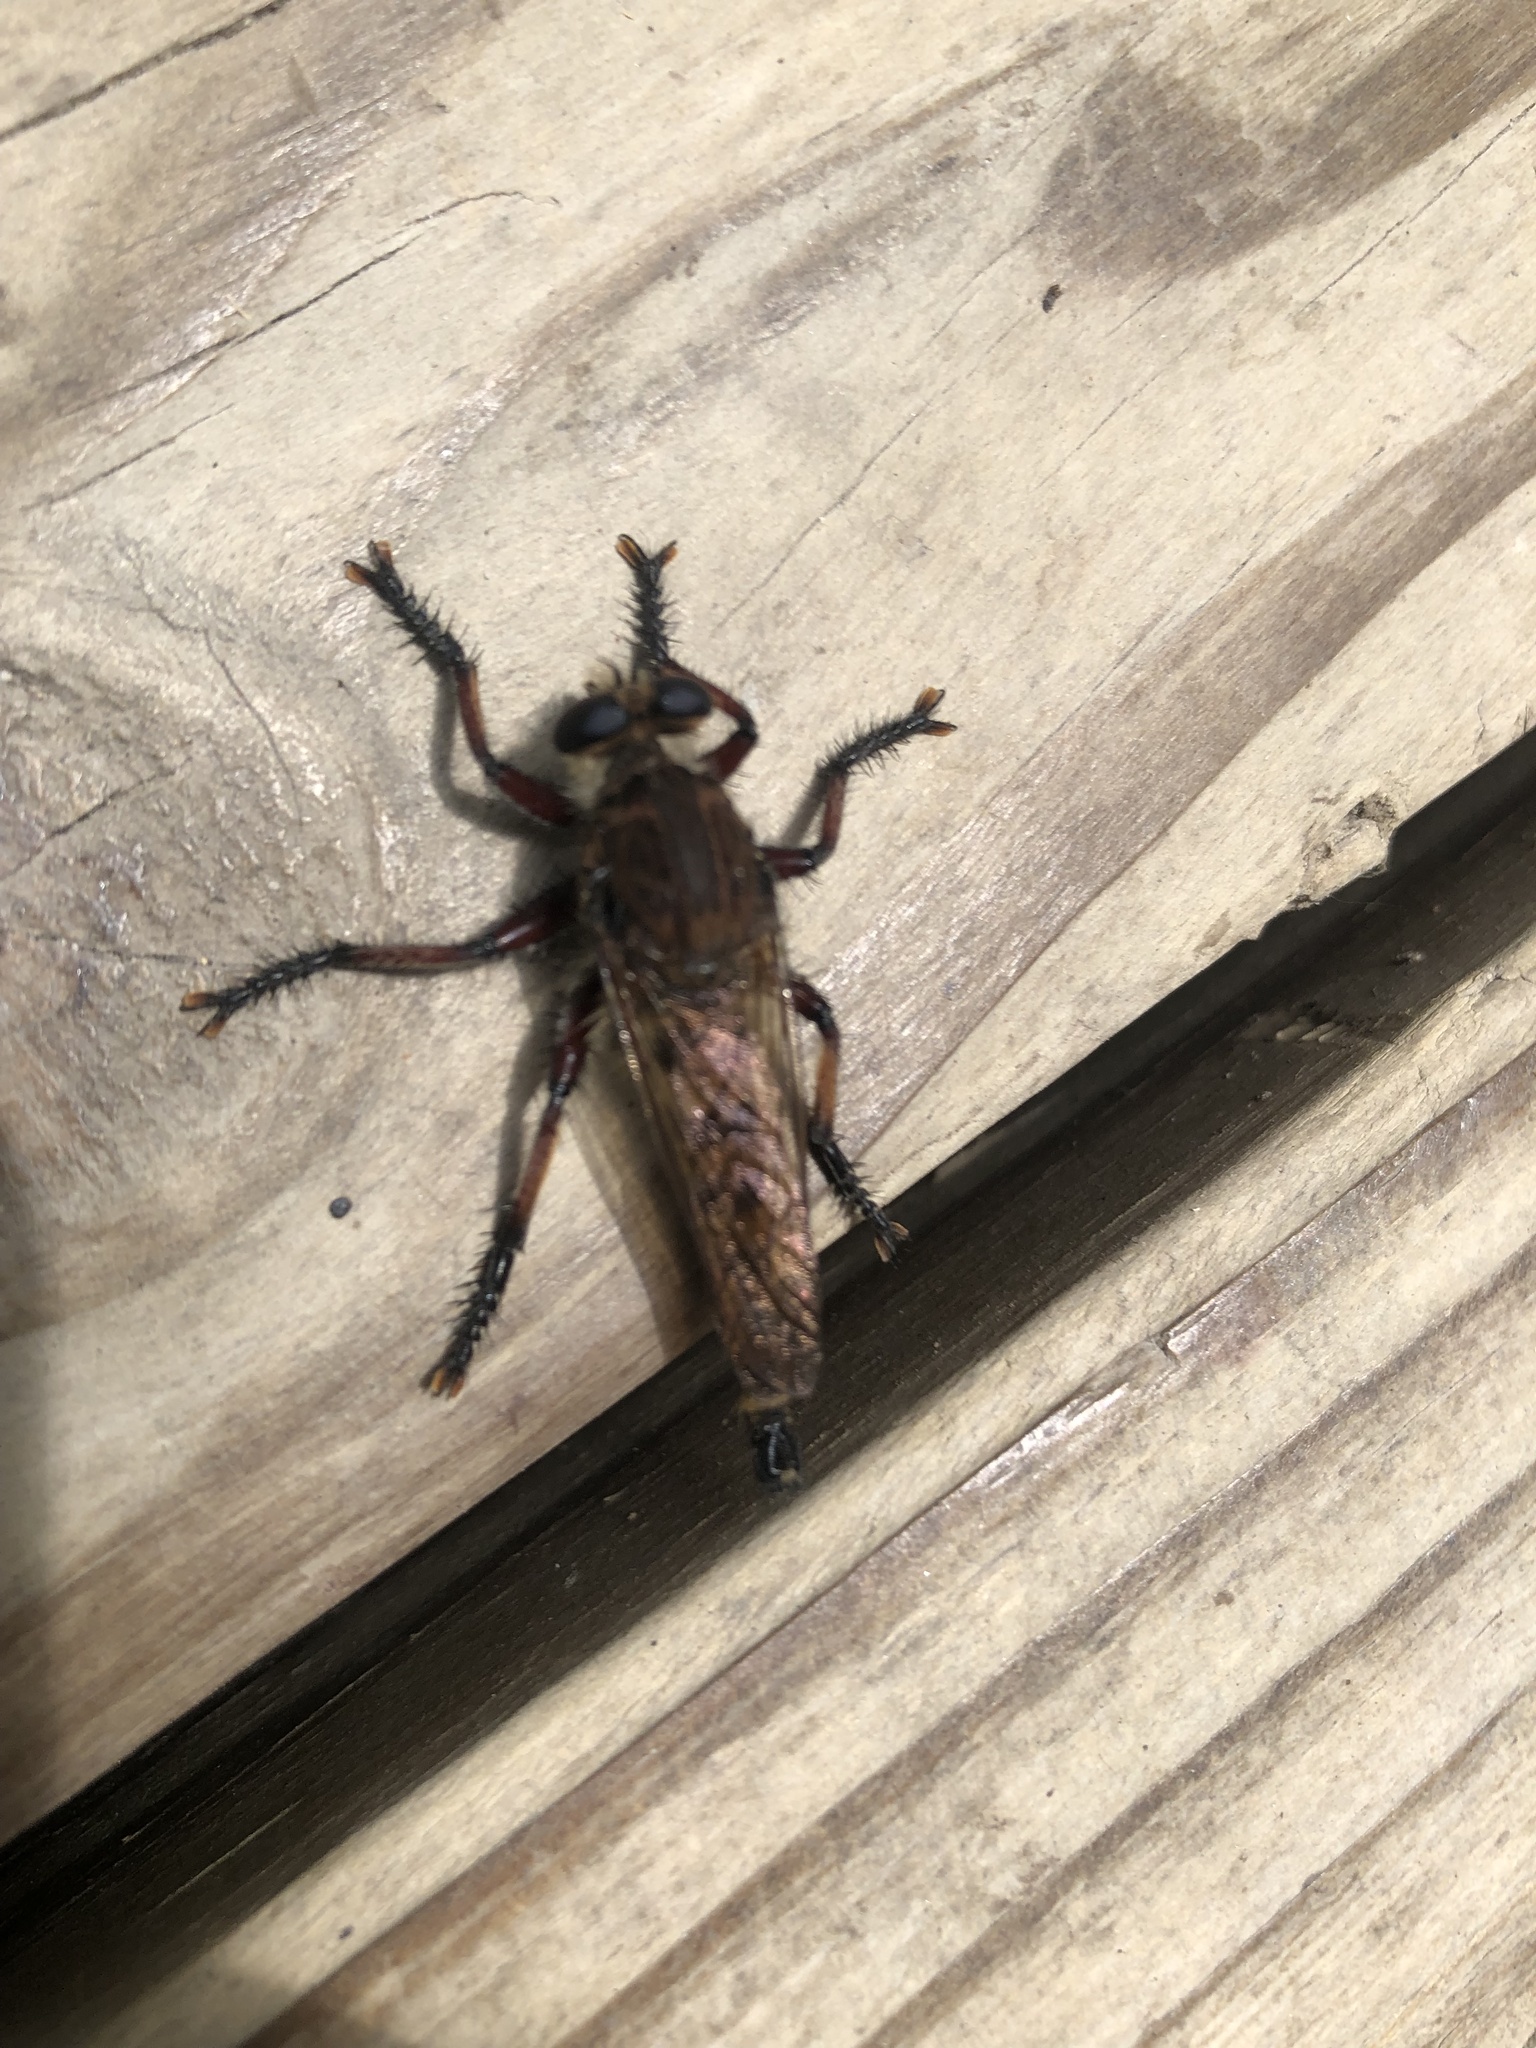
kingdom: Animalia
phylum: Arthropoda
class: Insecta
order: Diptera
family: Asilidae
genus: Promachus
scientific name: Promachus hinei
